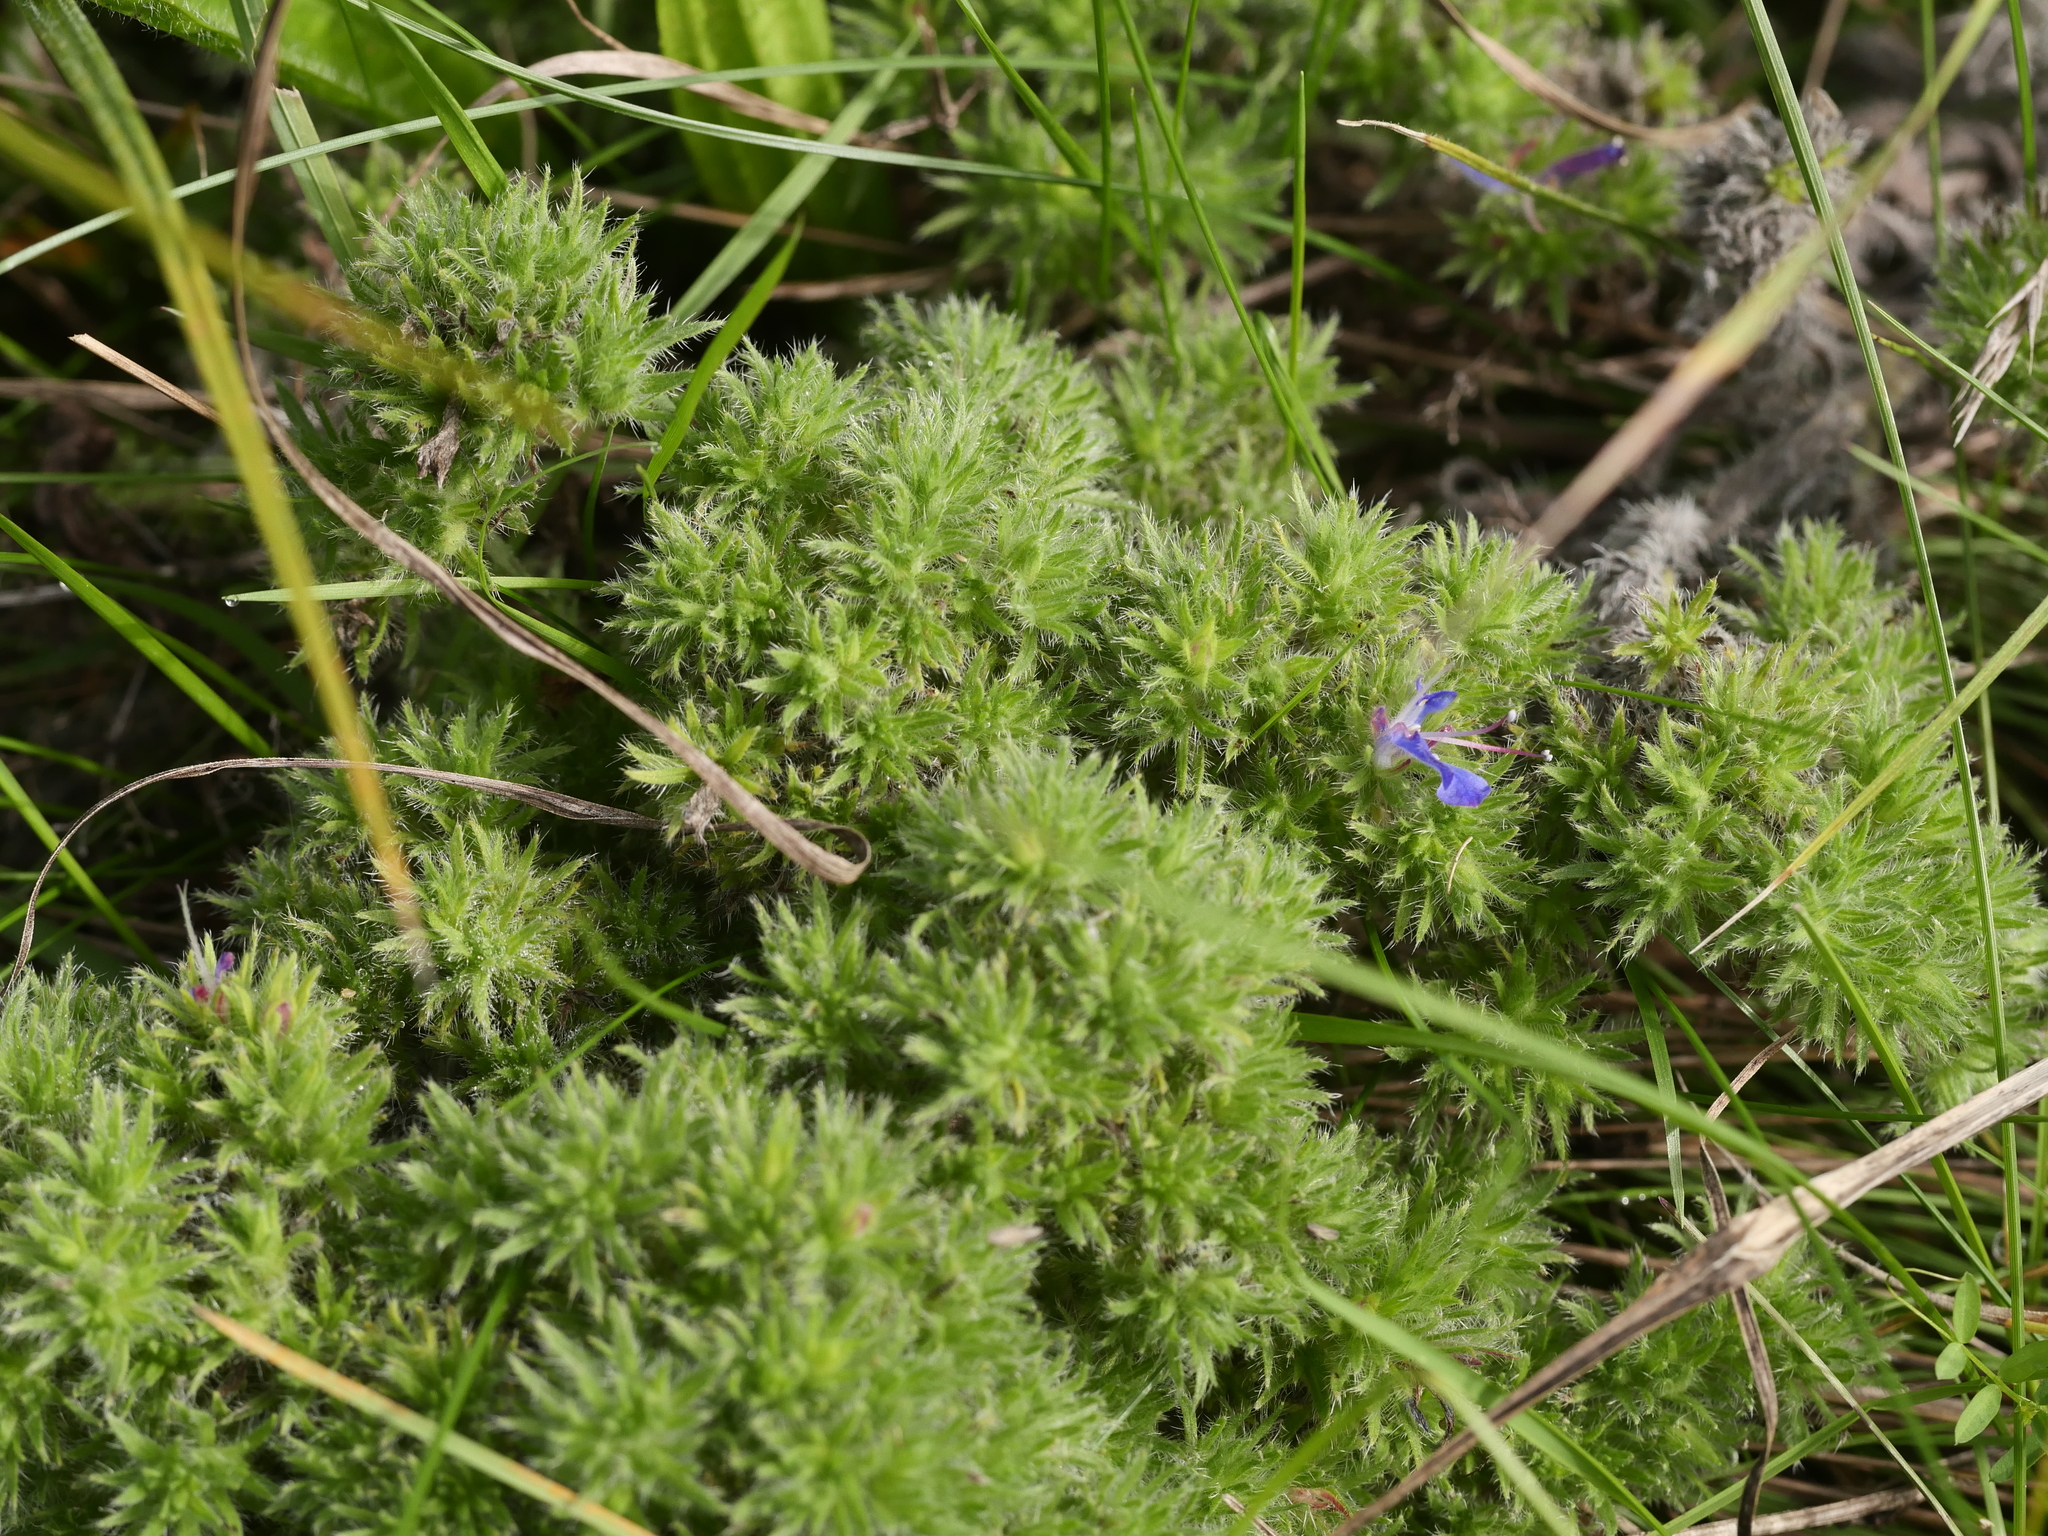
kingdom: Animalia
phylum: Arthropoda
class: Arachnida
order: Trombidiformes
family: Eriophyidae
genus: Aceria
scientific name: Aceria echii
